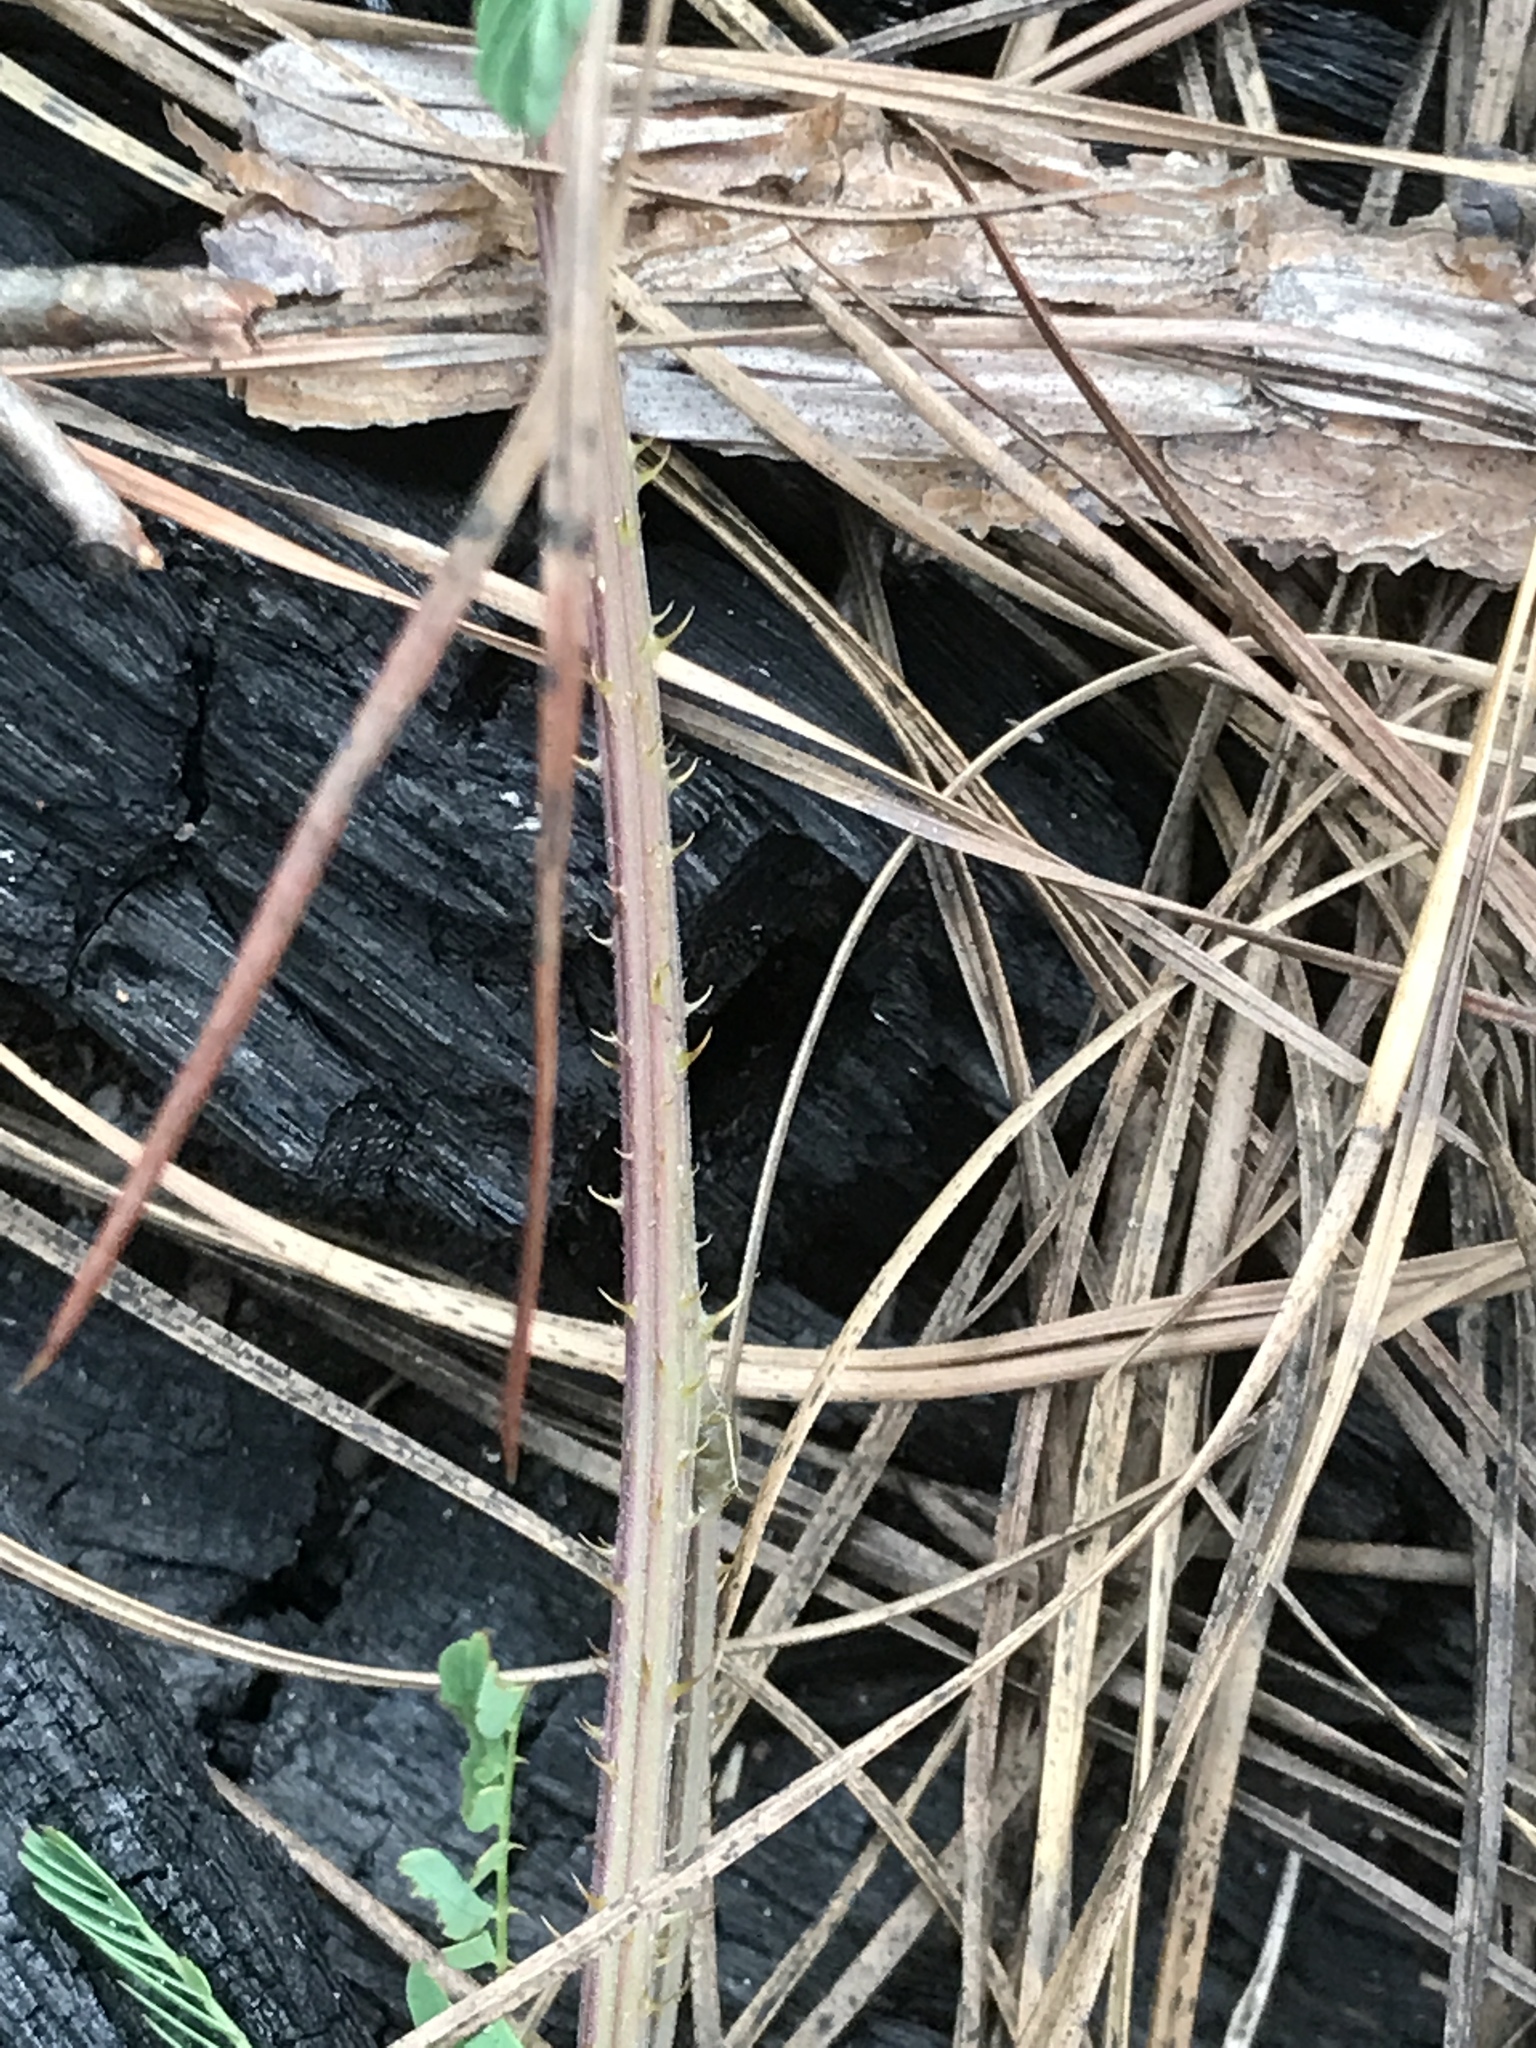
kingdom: Plantae
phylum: Tracheophyta
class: Magnoliopsida
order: Fabales
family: Fabaceae
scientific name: Fabaceae
